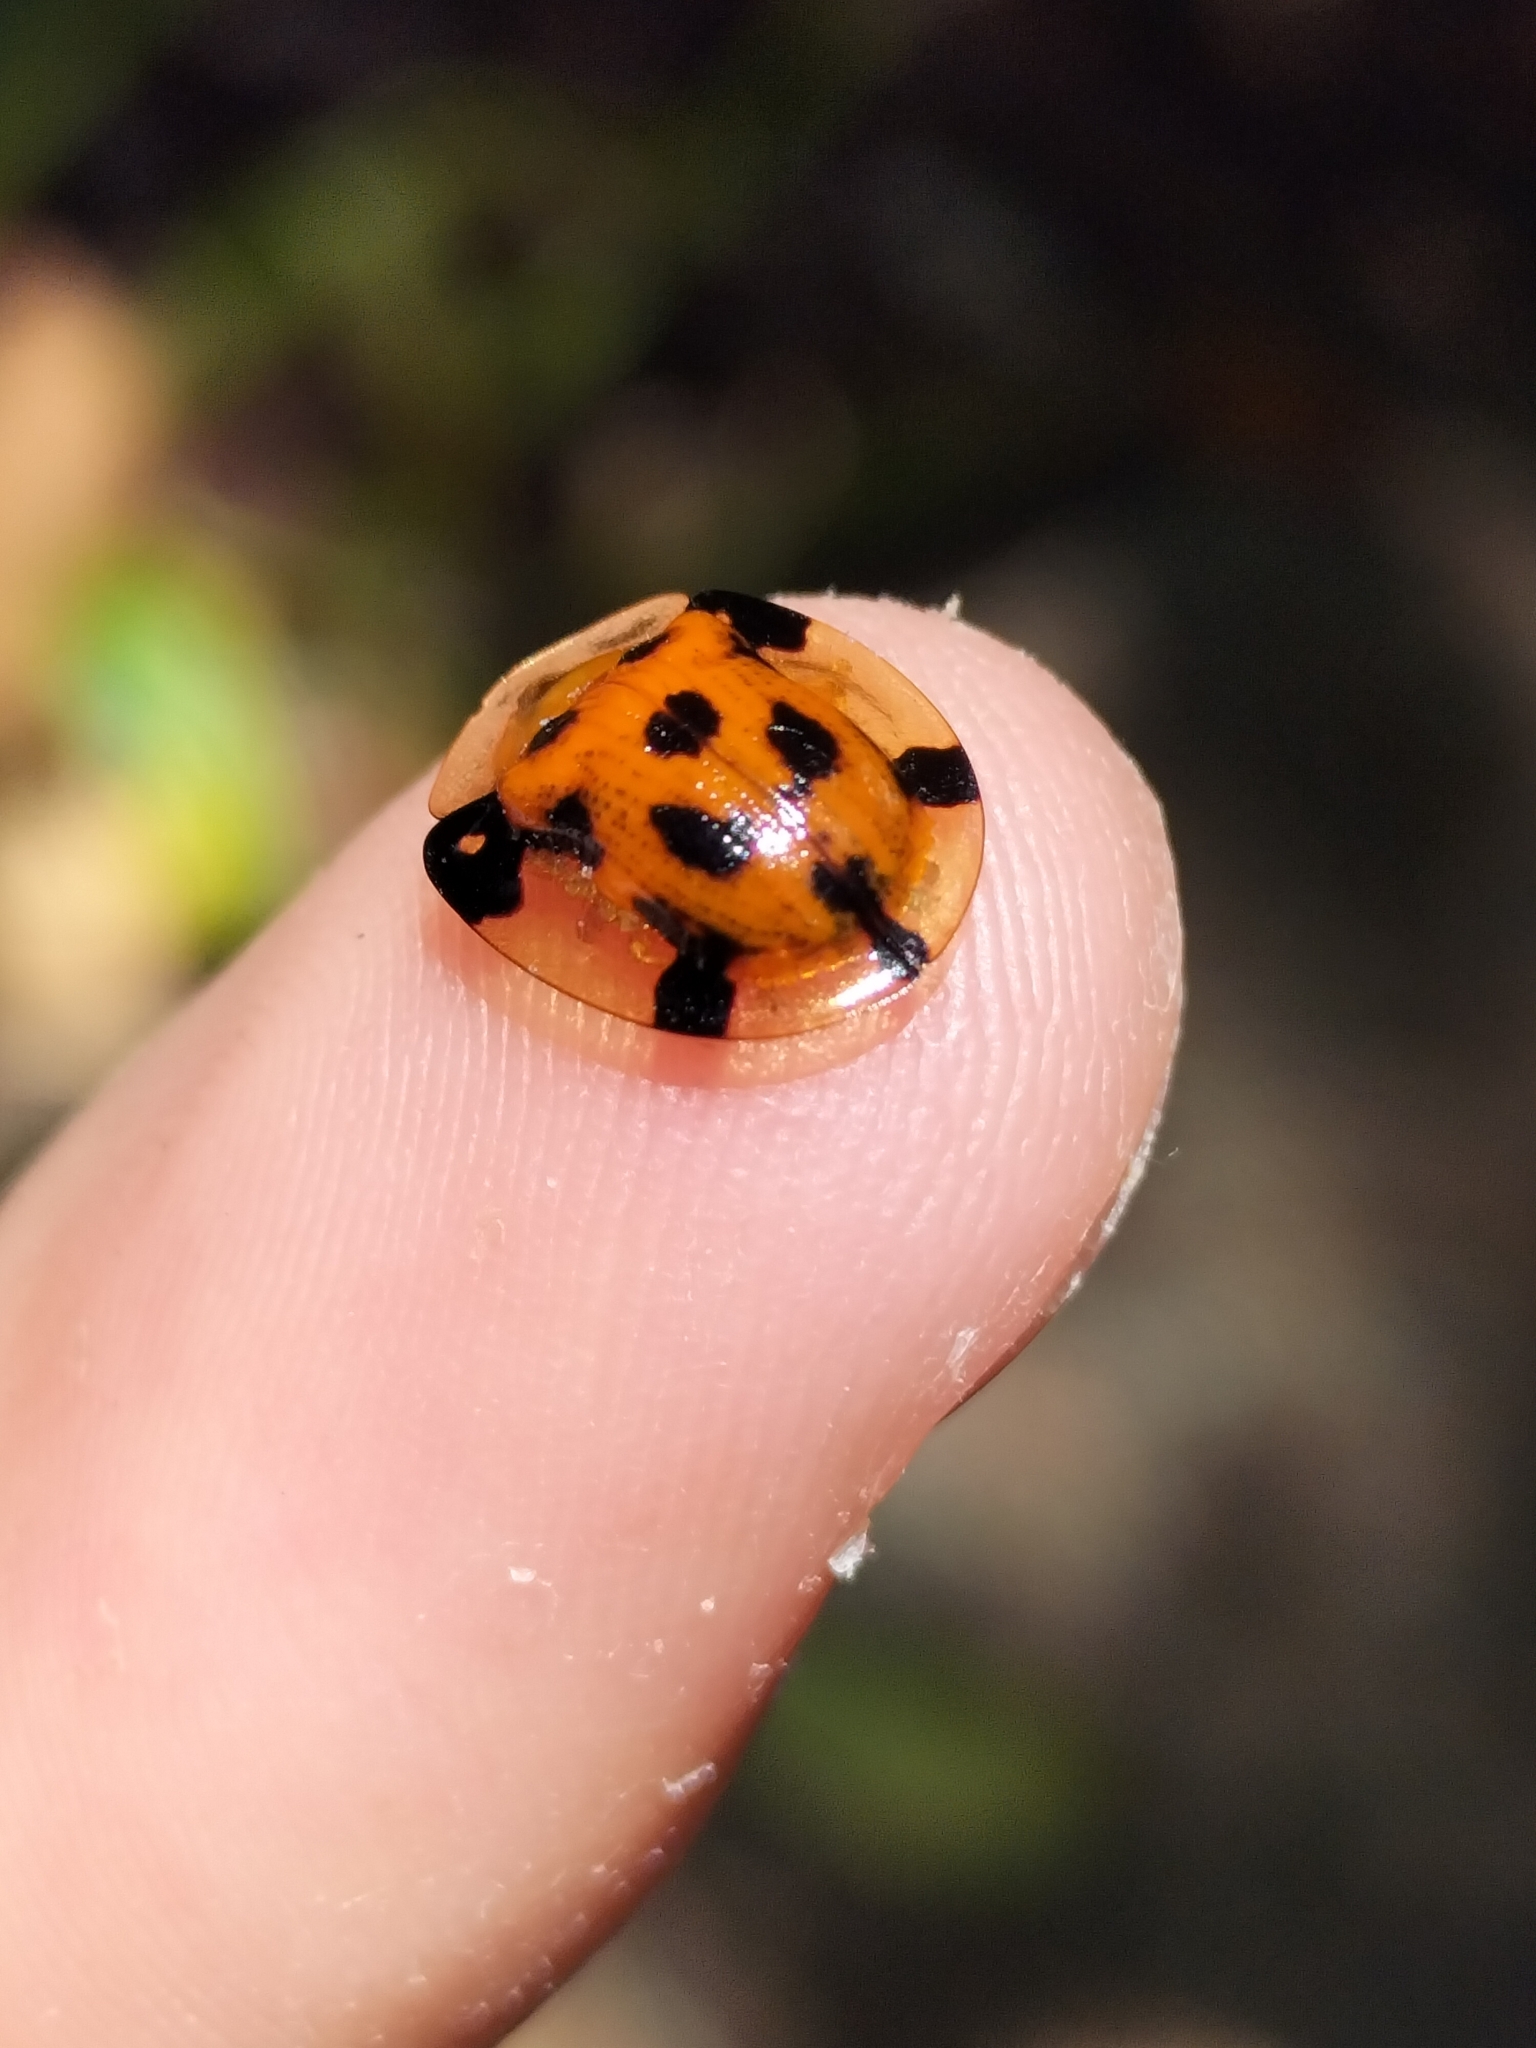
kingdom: Animalia
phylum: Arthropoda
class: Insecta
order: Coleoptera
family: Chrysomelidae
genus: Aspidimorpha
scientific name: Aspidimorpha punctum
